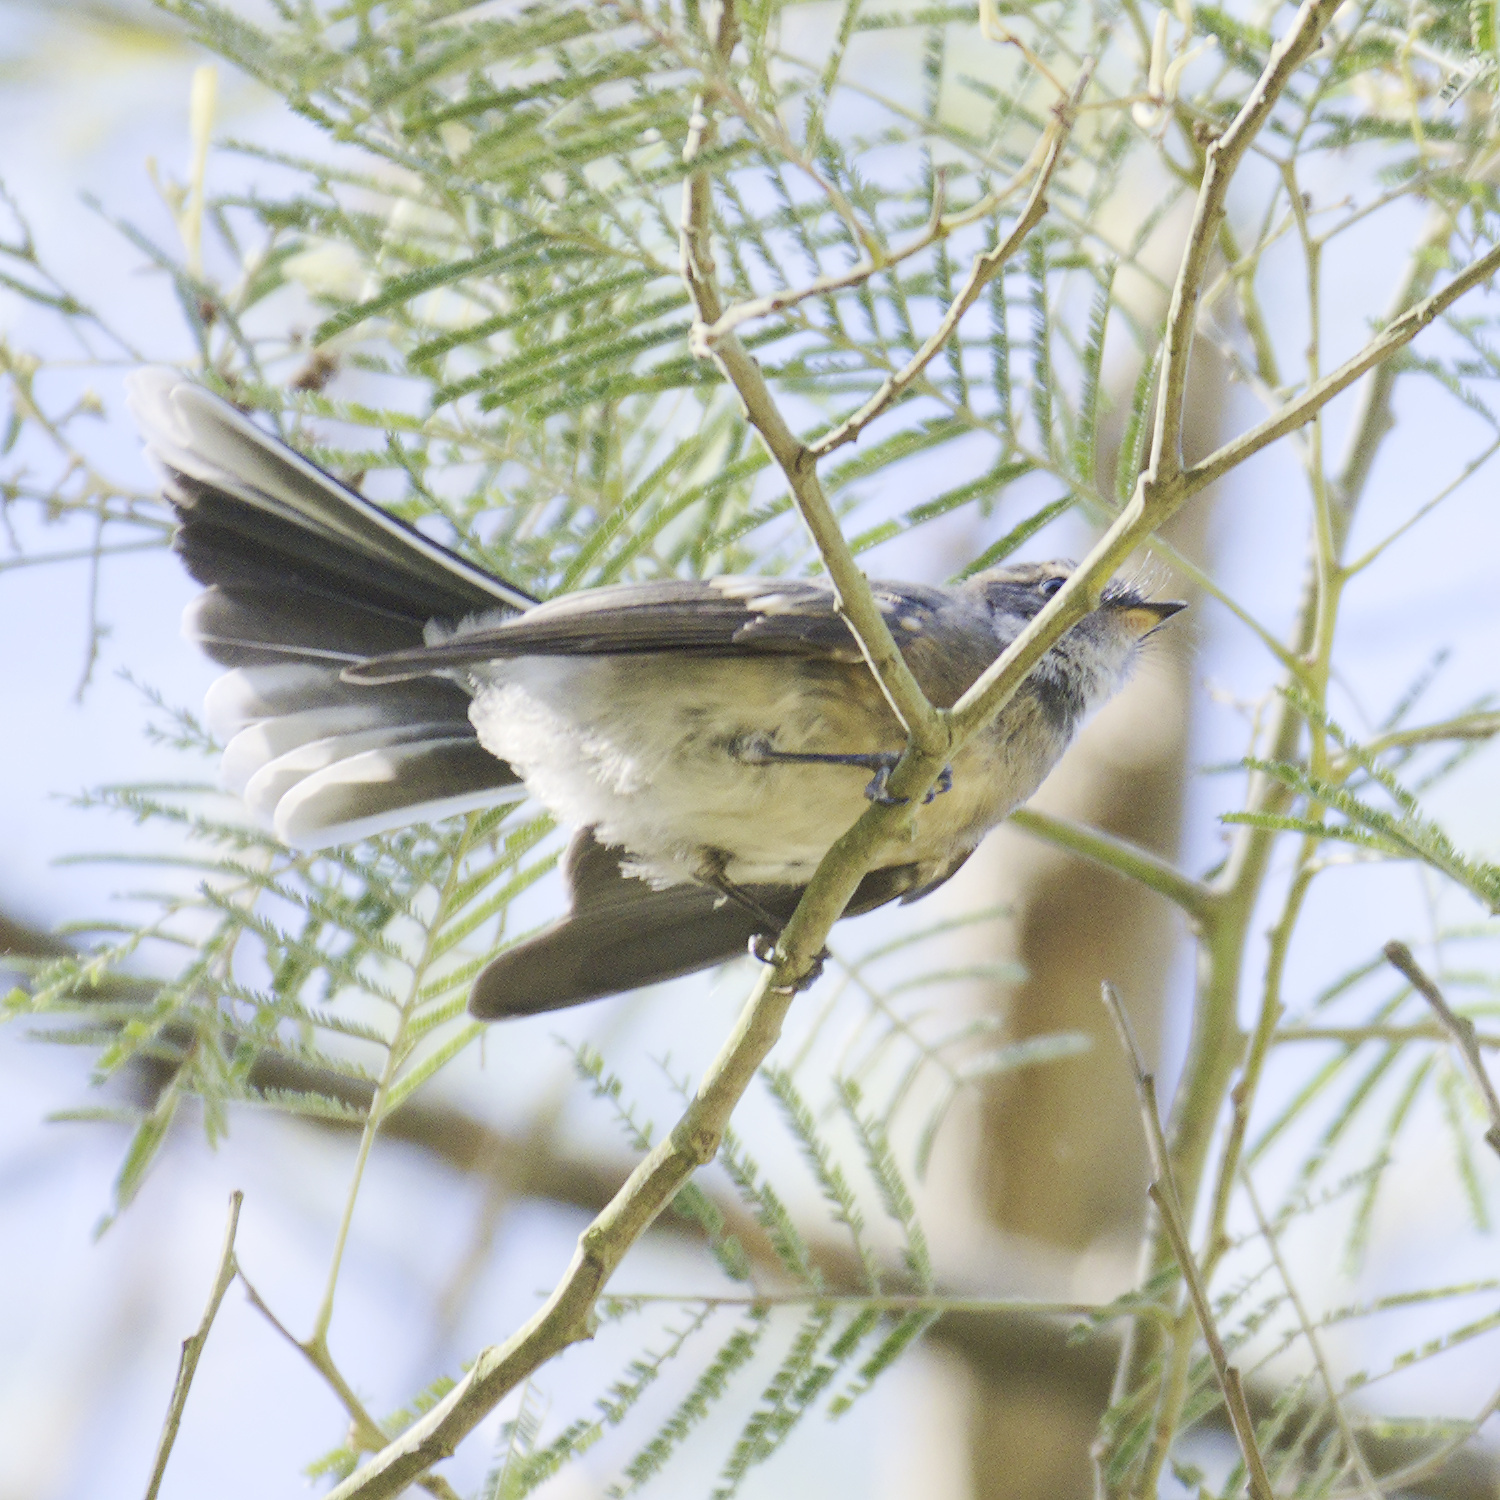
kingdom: Animalia
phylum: Chordata
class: Aves
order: Passeriformes
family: Rhipiduridae
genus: Rhipidura
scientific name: Rhipidura albiscapa
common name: Grey fantail
